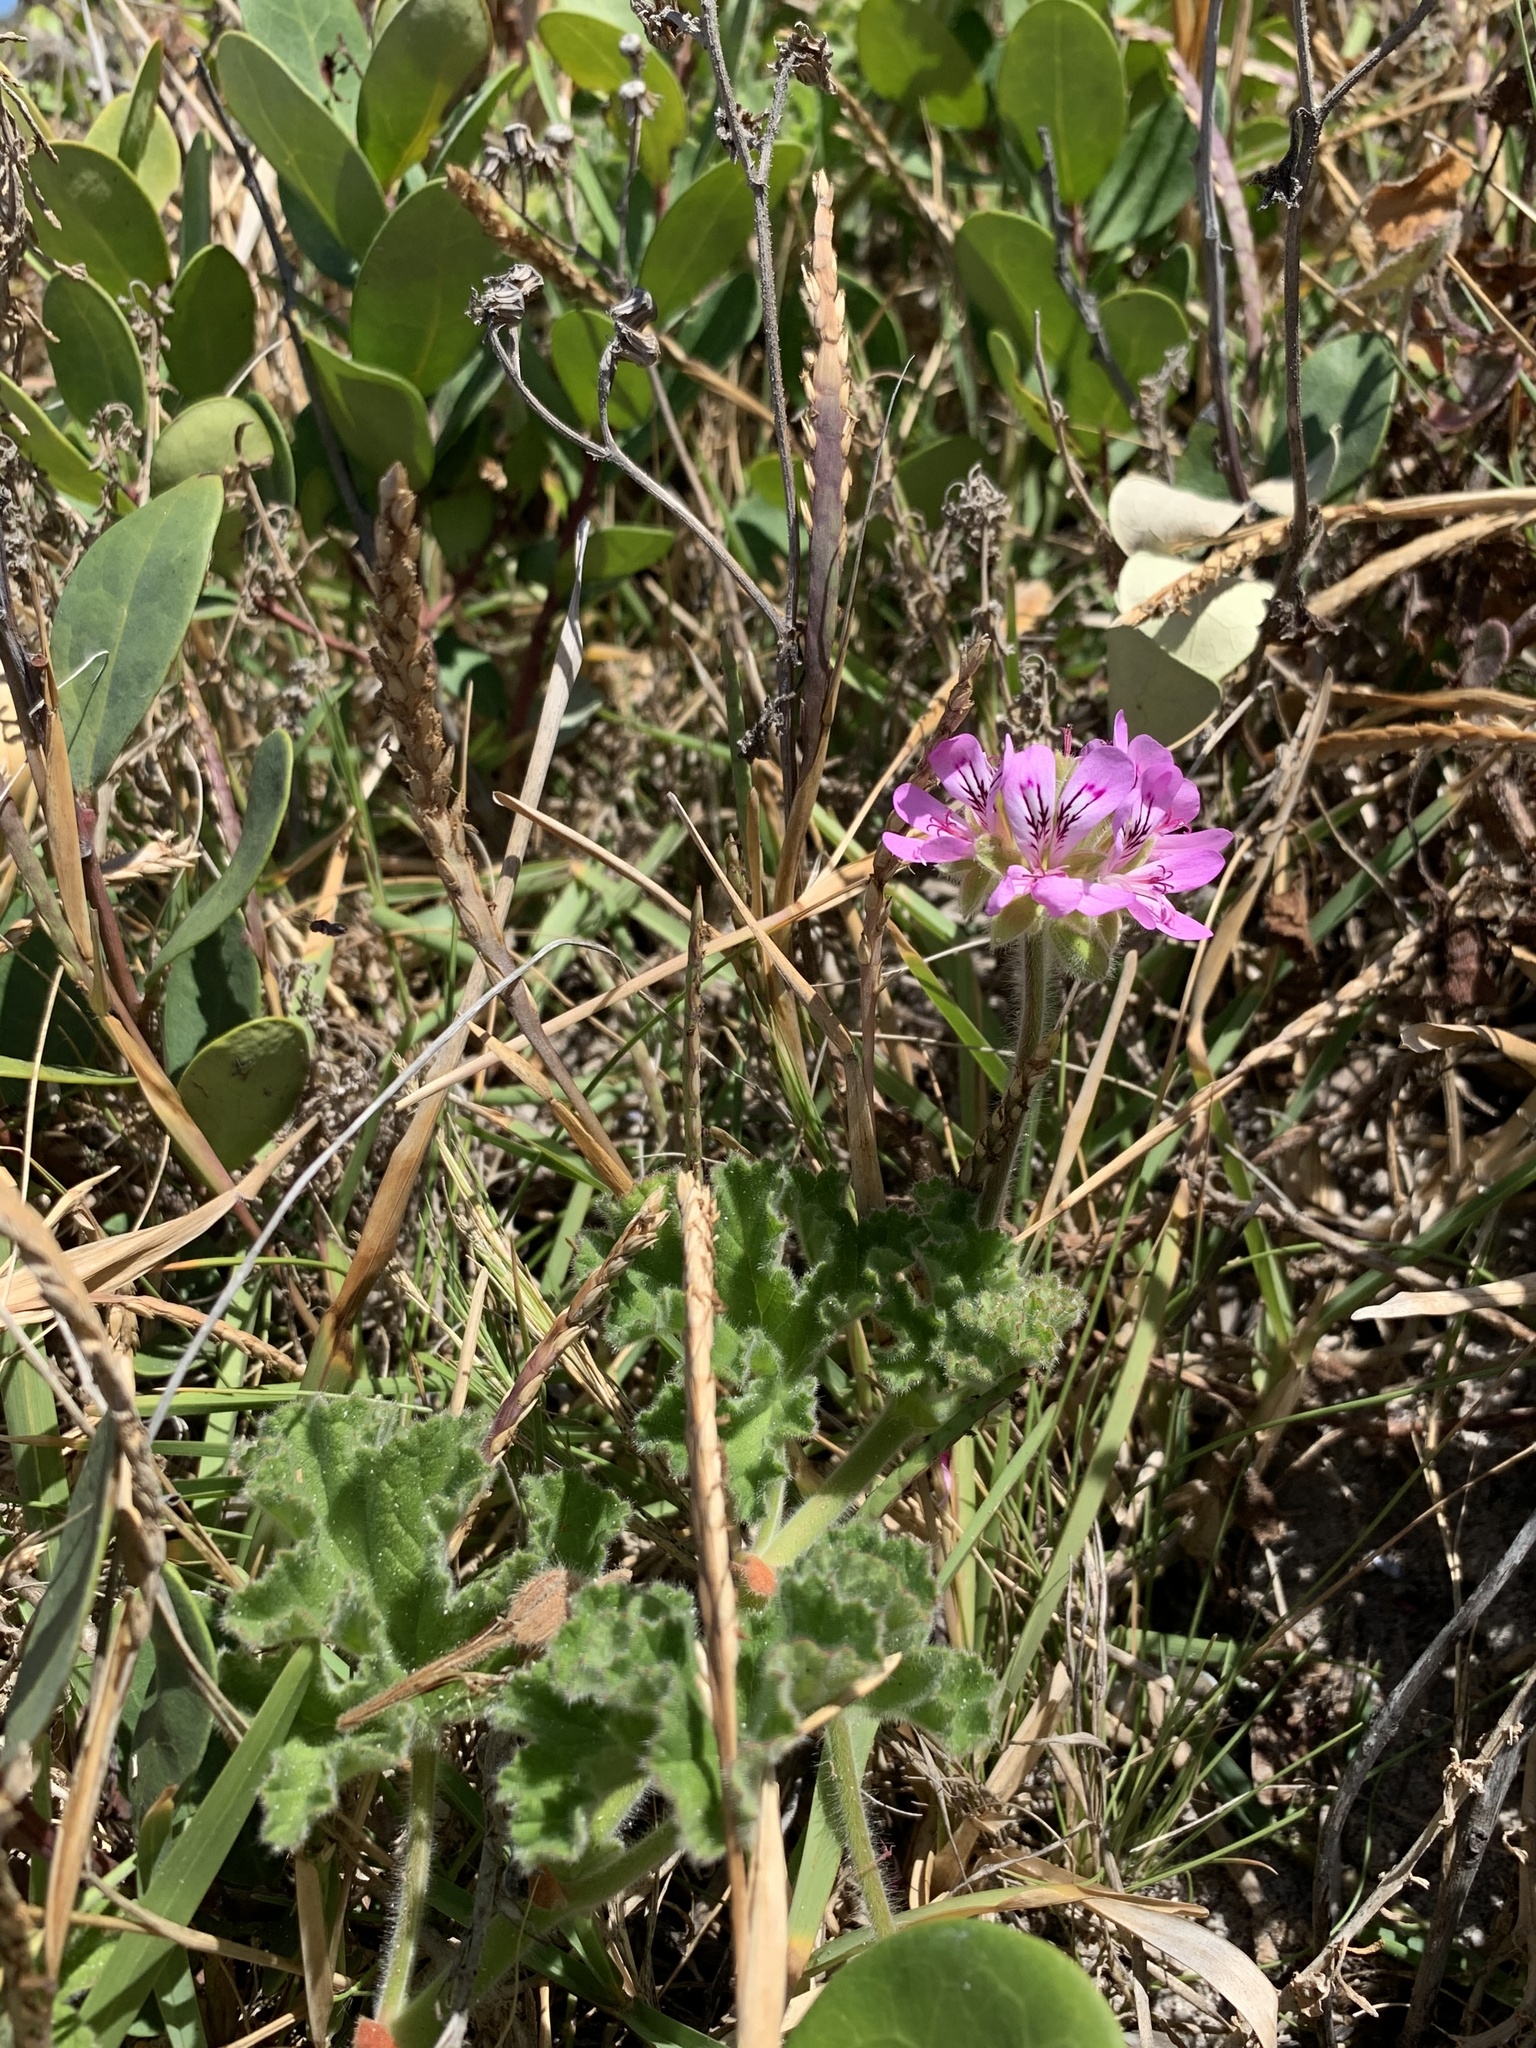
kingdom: Plantae
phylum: Tracheophyta
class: Magnoliopsida
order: Geraniales
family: Geraniaceae
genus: Pelargonium
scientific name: Pelargonium capitatum
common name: Rose scented geranium
